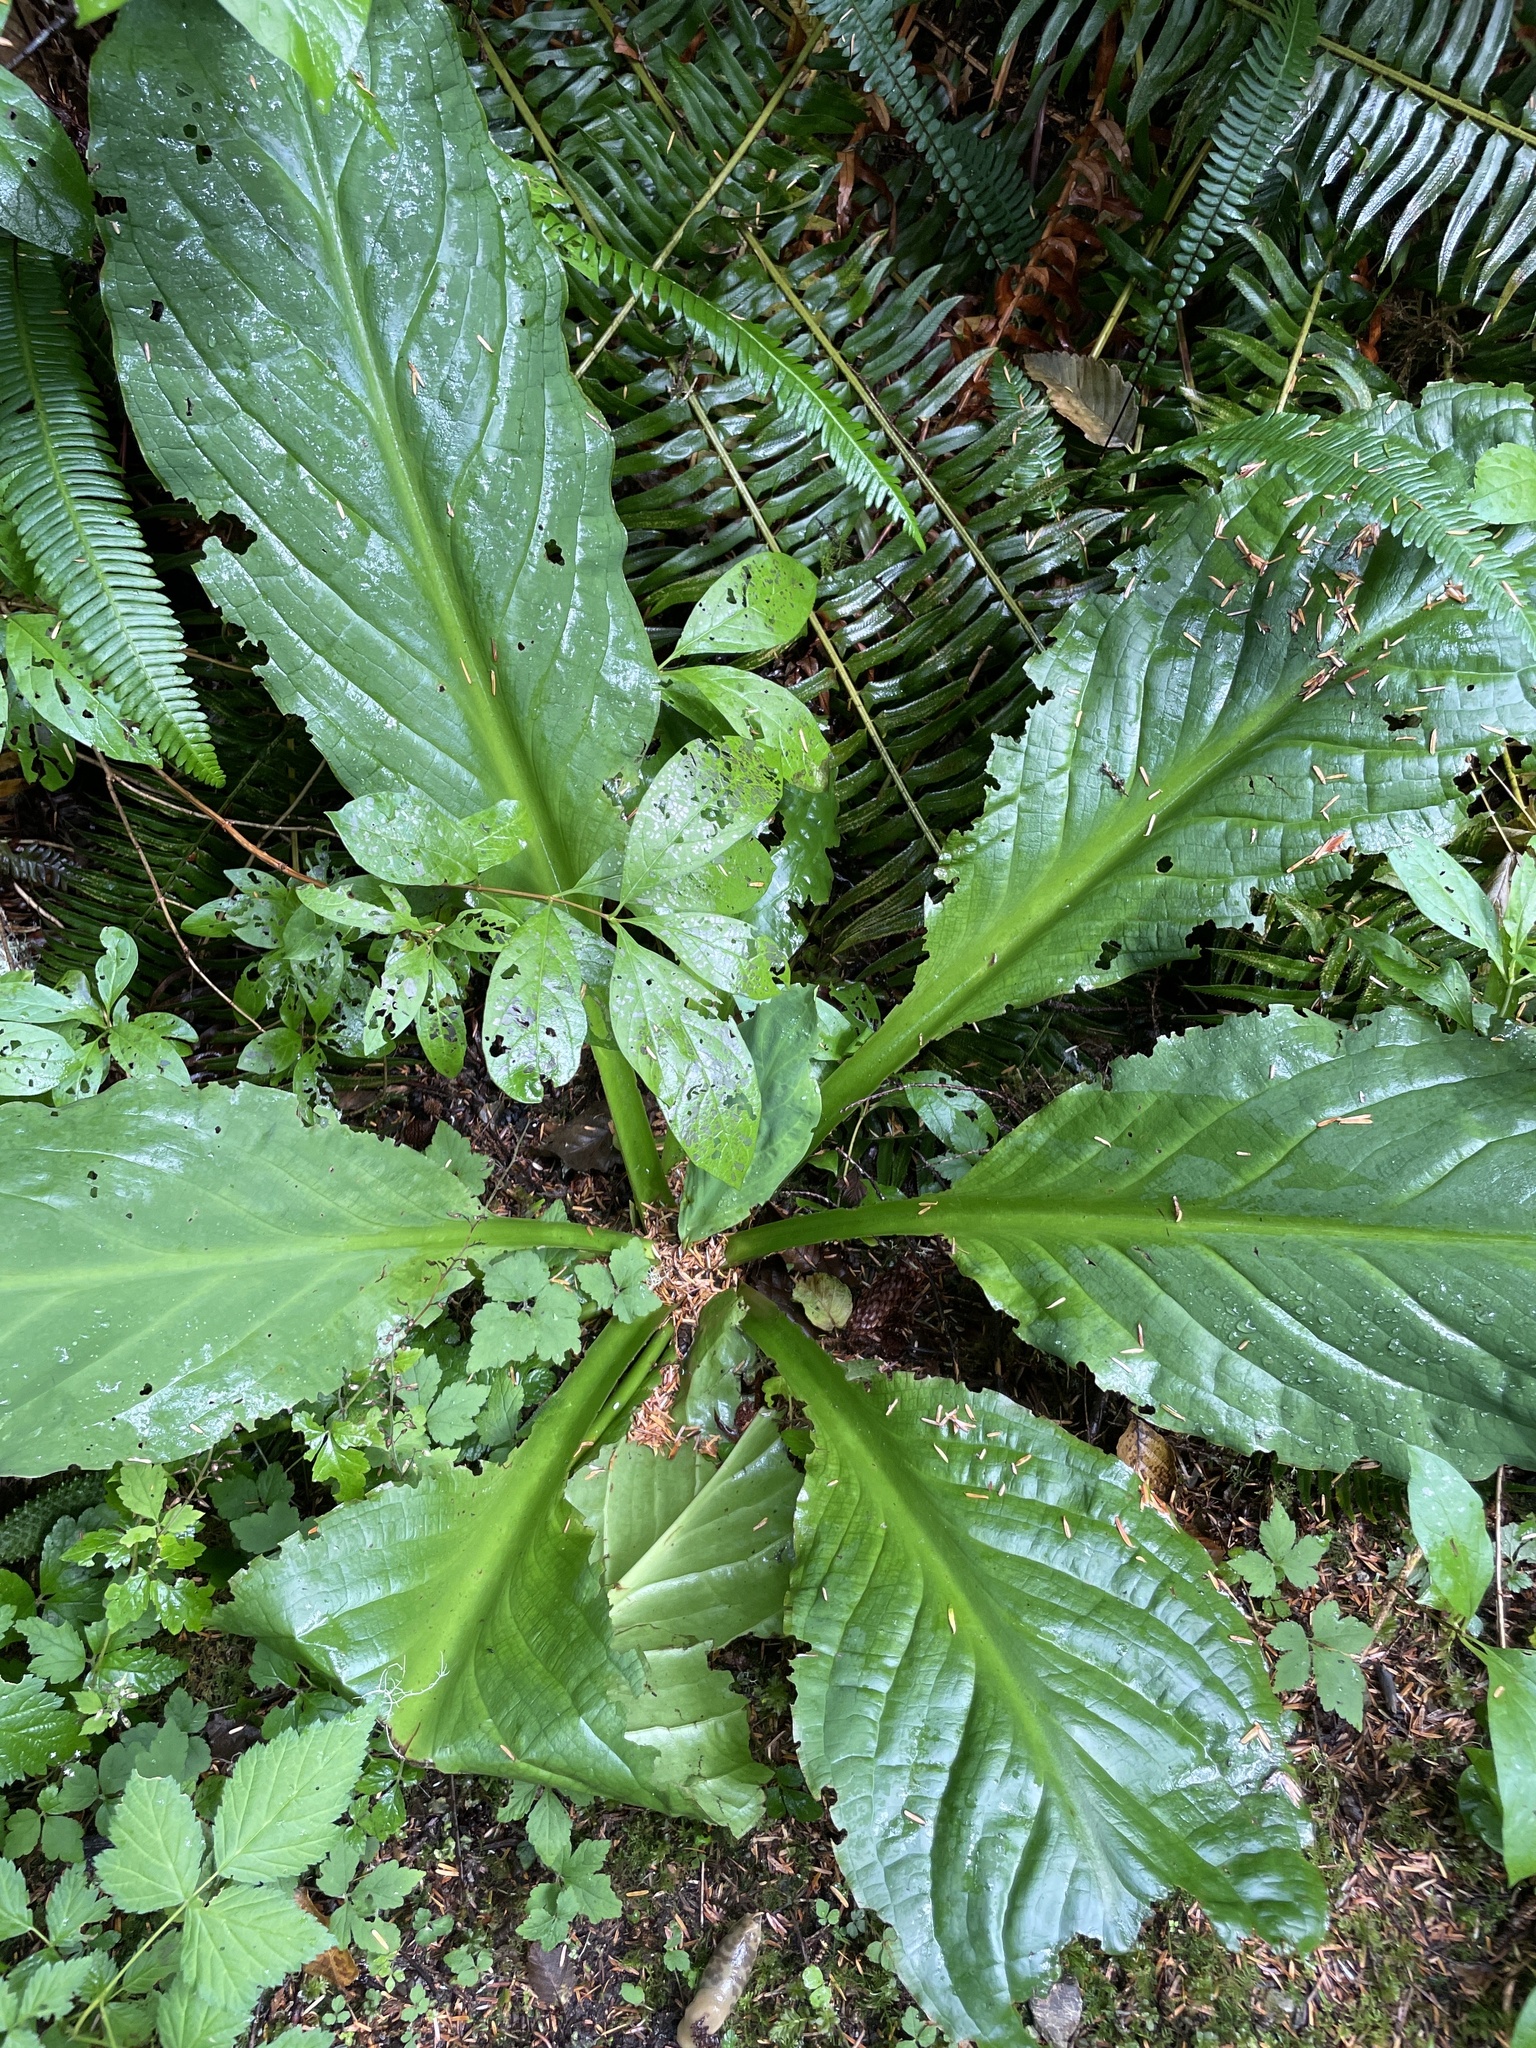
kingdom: Plantae
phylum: Tracheophyta
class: Liliopsida
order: Alismatales
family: Araceae
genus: Lysichiton
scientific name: Lysichiton americanus
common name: American skunk cabbage
